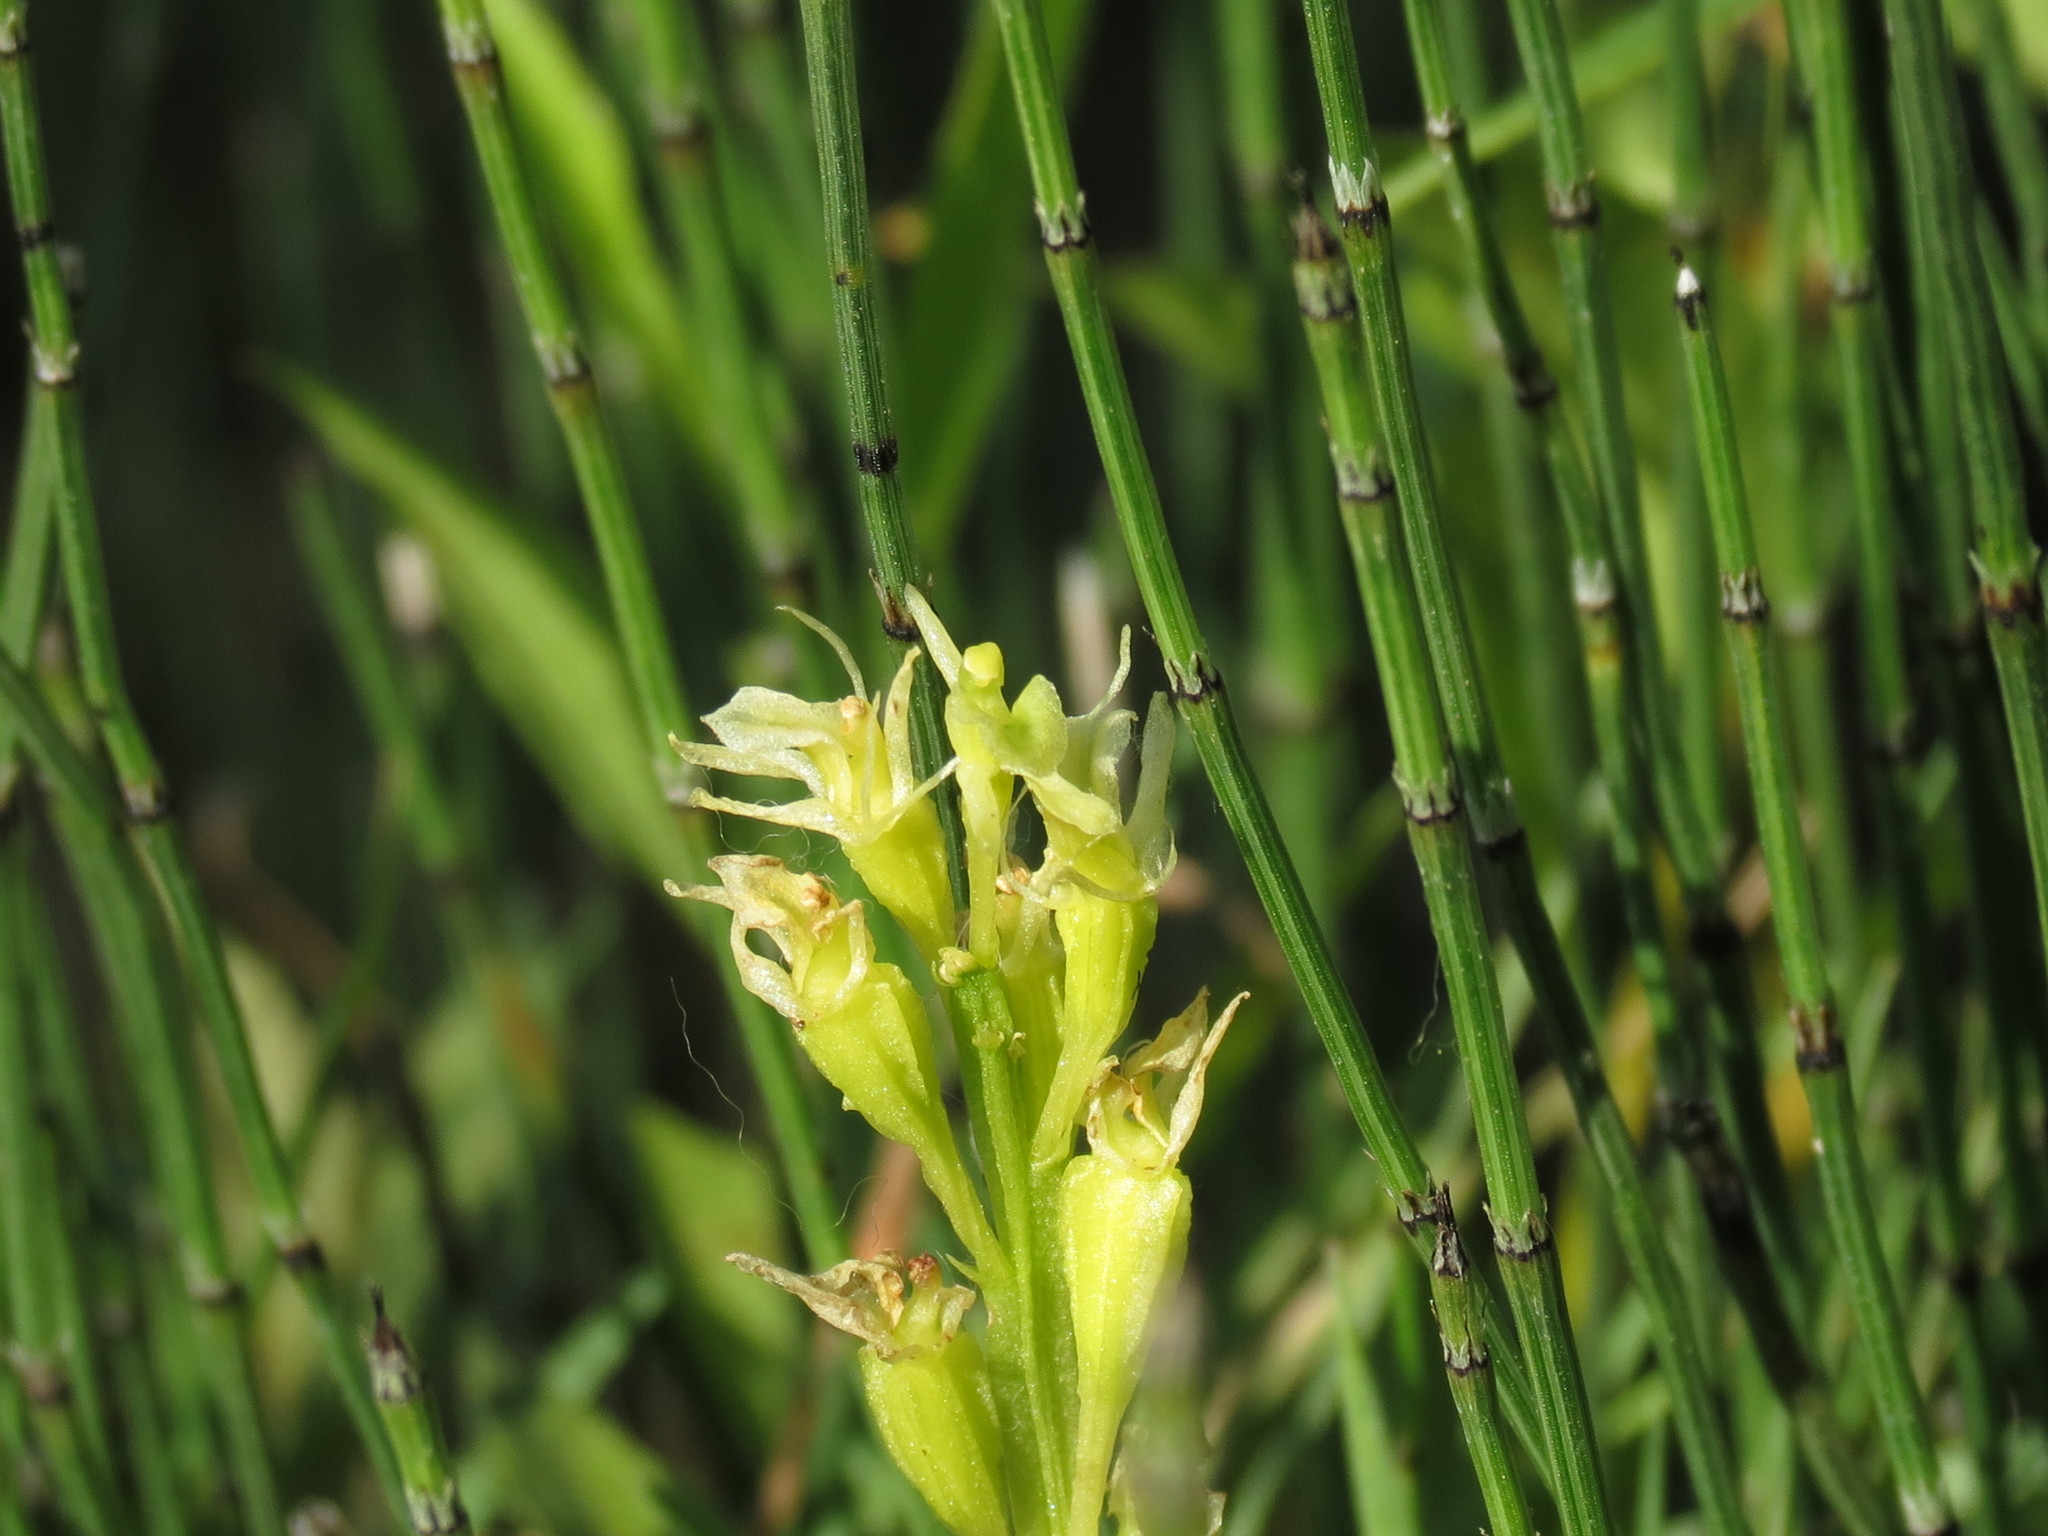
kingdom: Animalia
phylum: Arthropoda
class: Insecta
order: Coleoptera
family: Curculionidae
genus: Liparis
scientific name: Liparis loeselii
